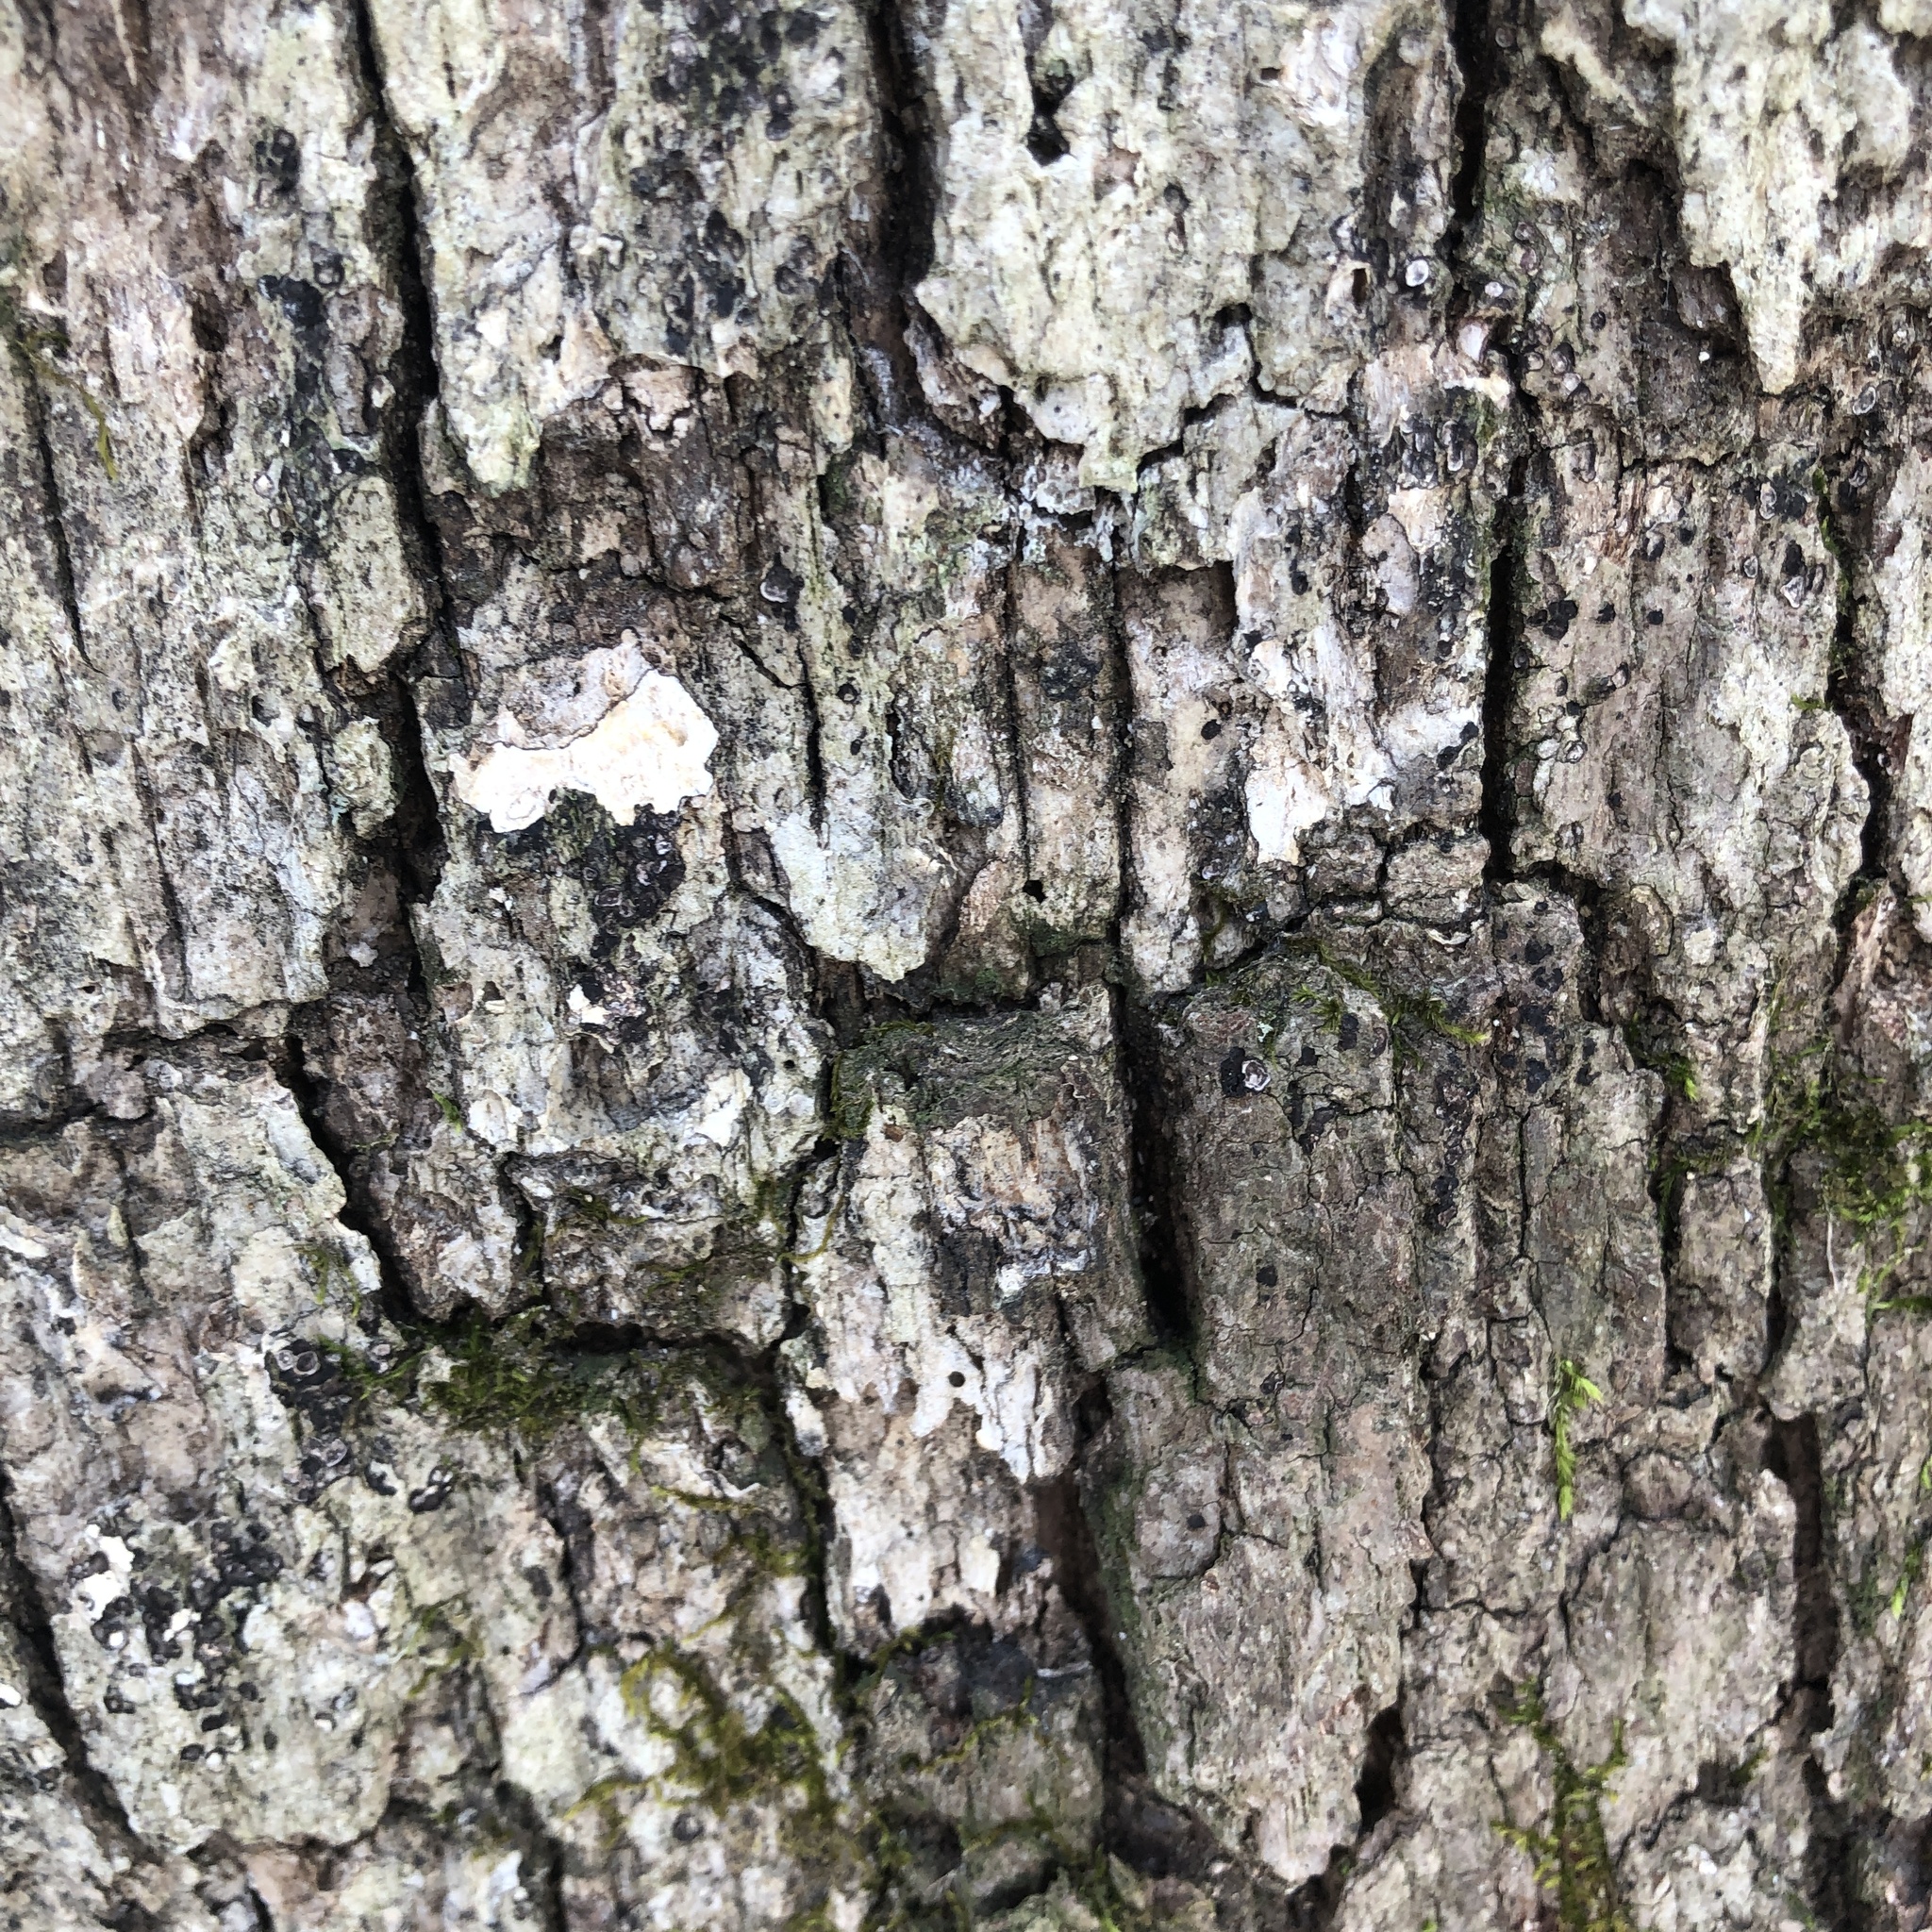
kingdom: Fungi
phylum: Basidiomycota
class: Agaricomycetes
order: Russulales
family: Stereaceae
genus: Acanthophysium
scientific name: Acanthophysium oakesii
